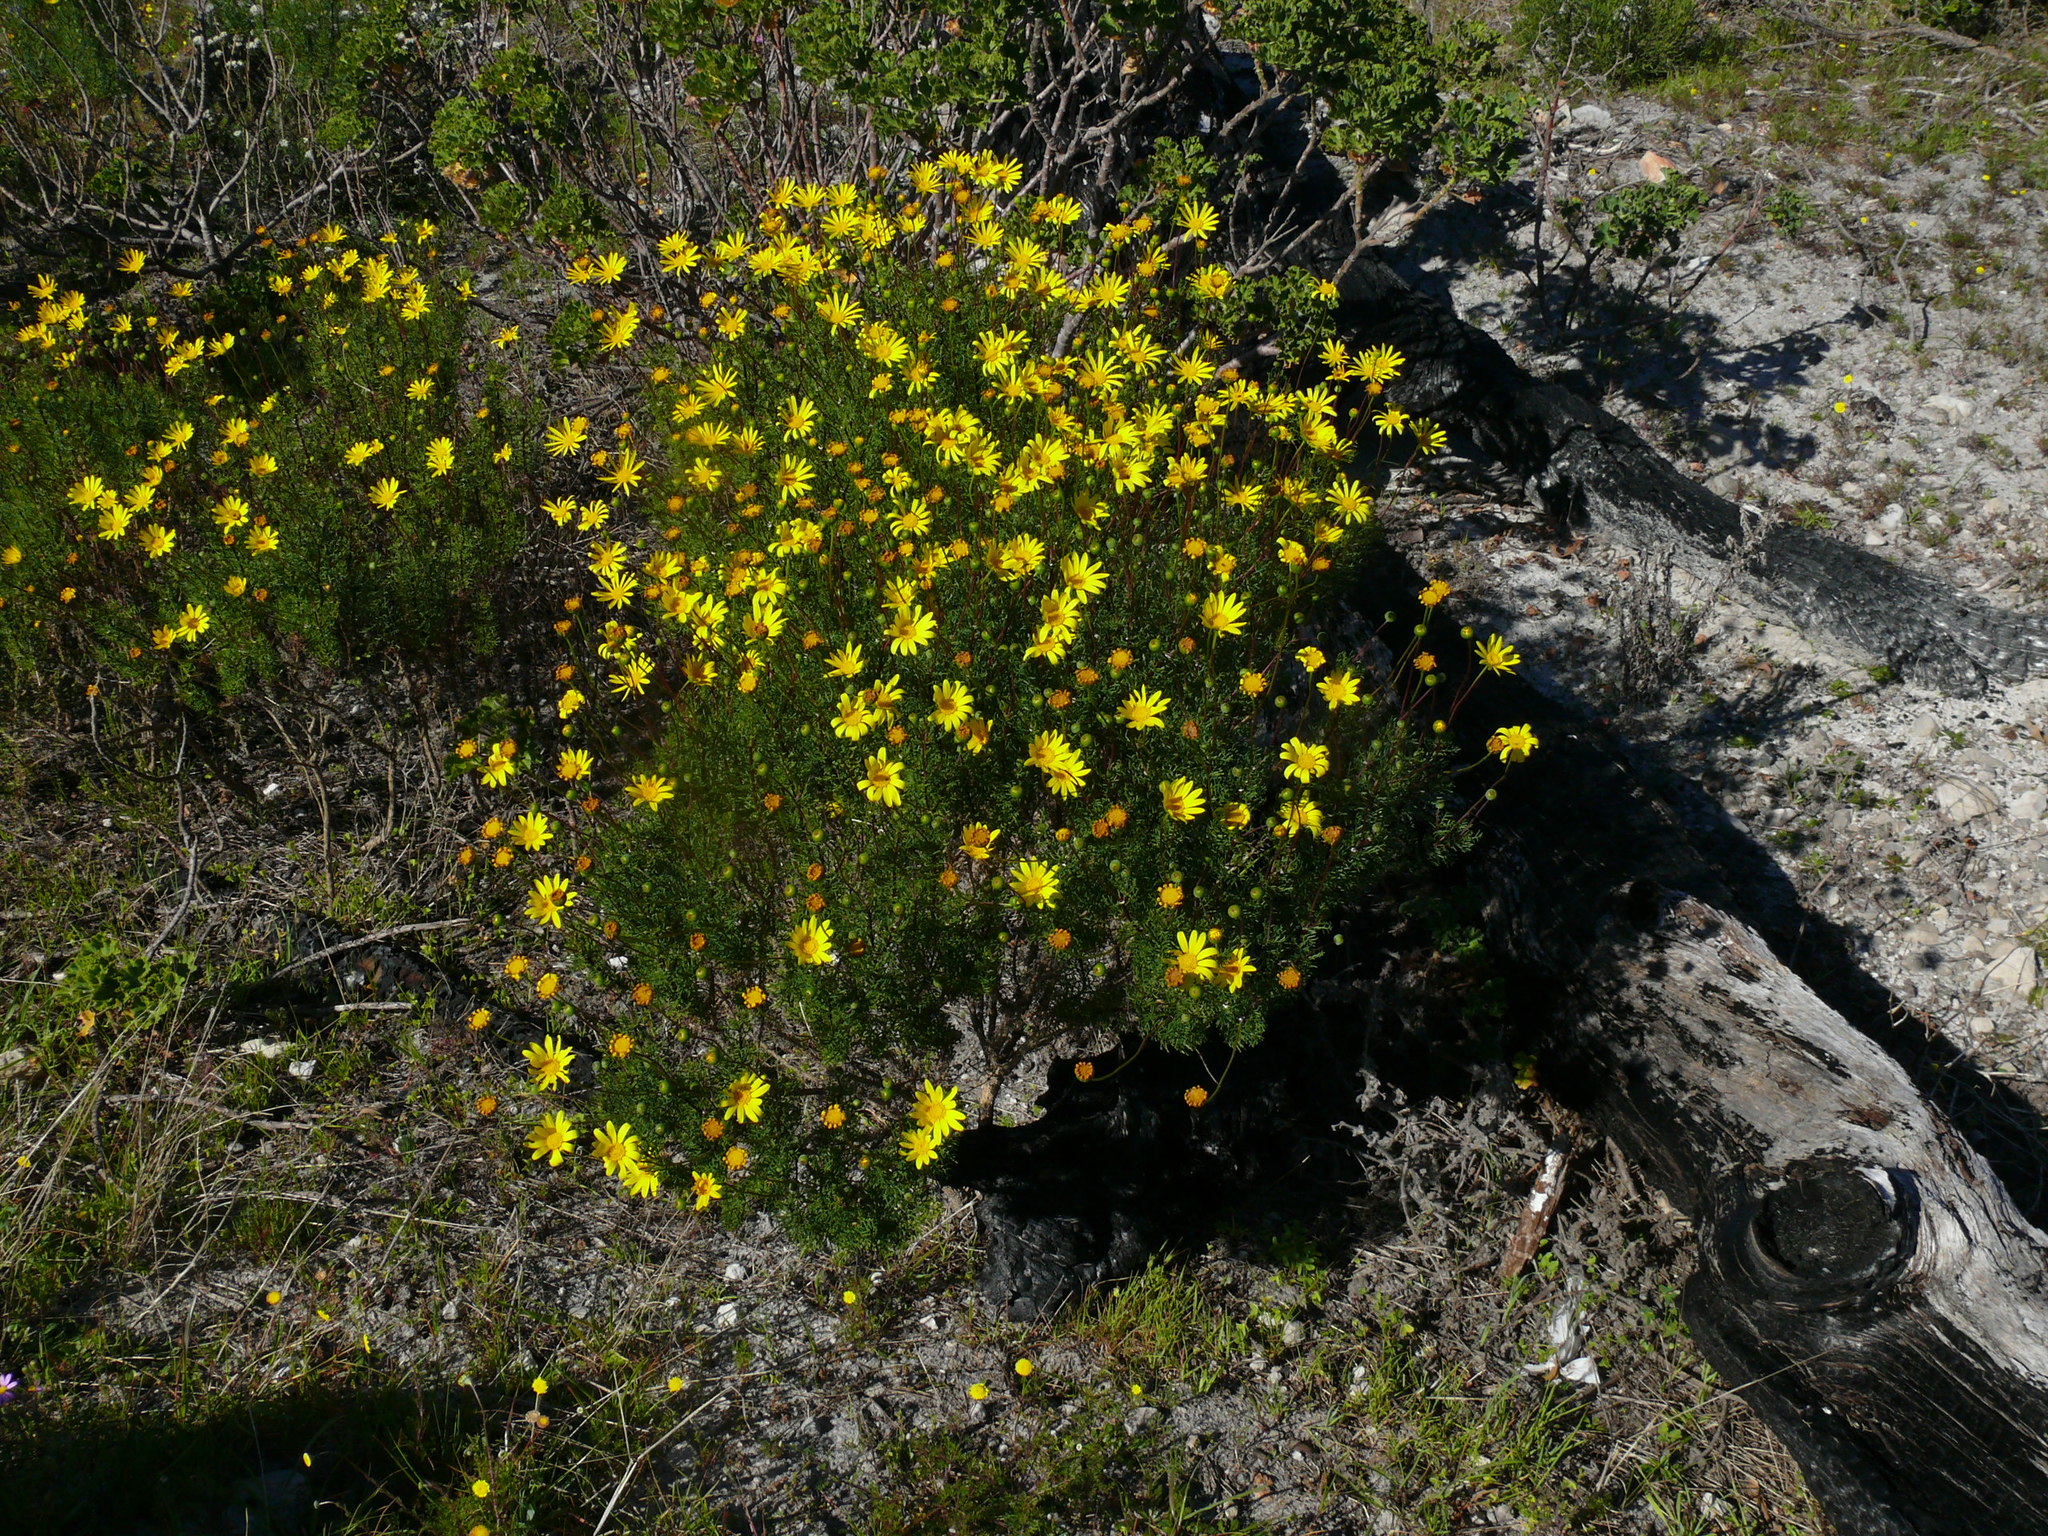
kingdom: Plantae
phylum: Tracheophyta
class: Magnoliopsida
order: Asterales
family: Asteraceae
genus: Euryops
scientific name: Euryops abrotanifolius
